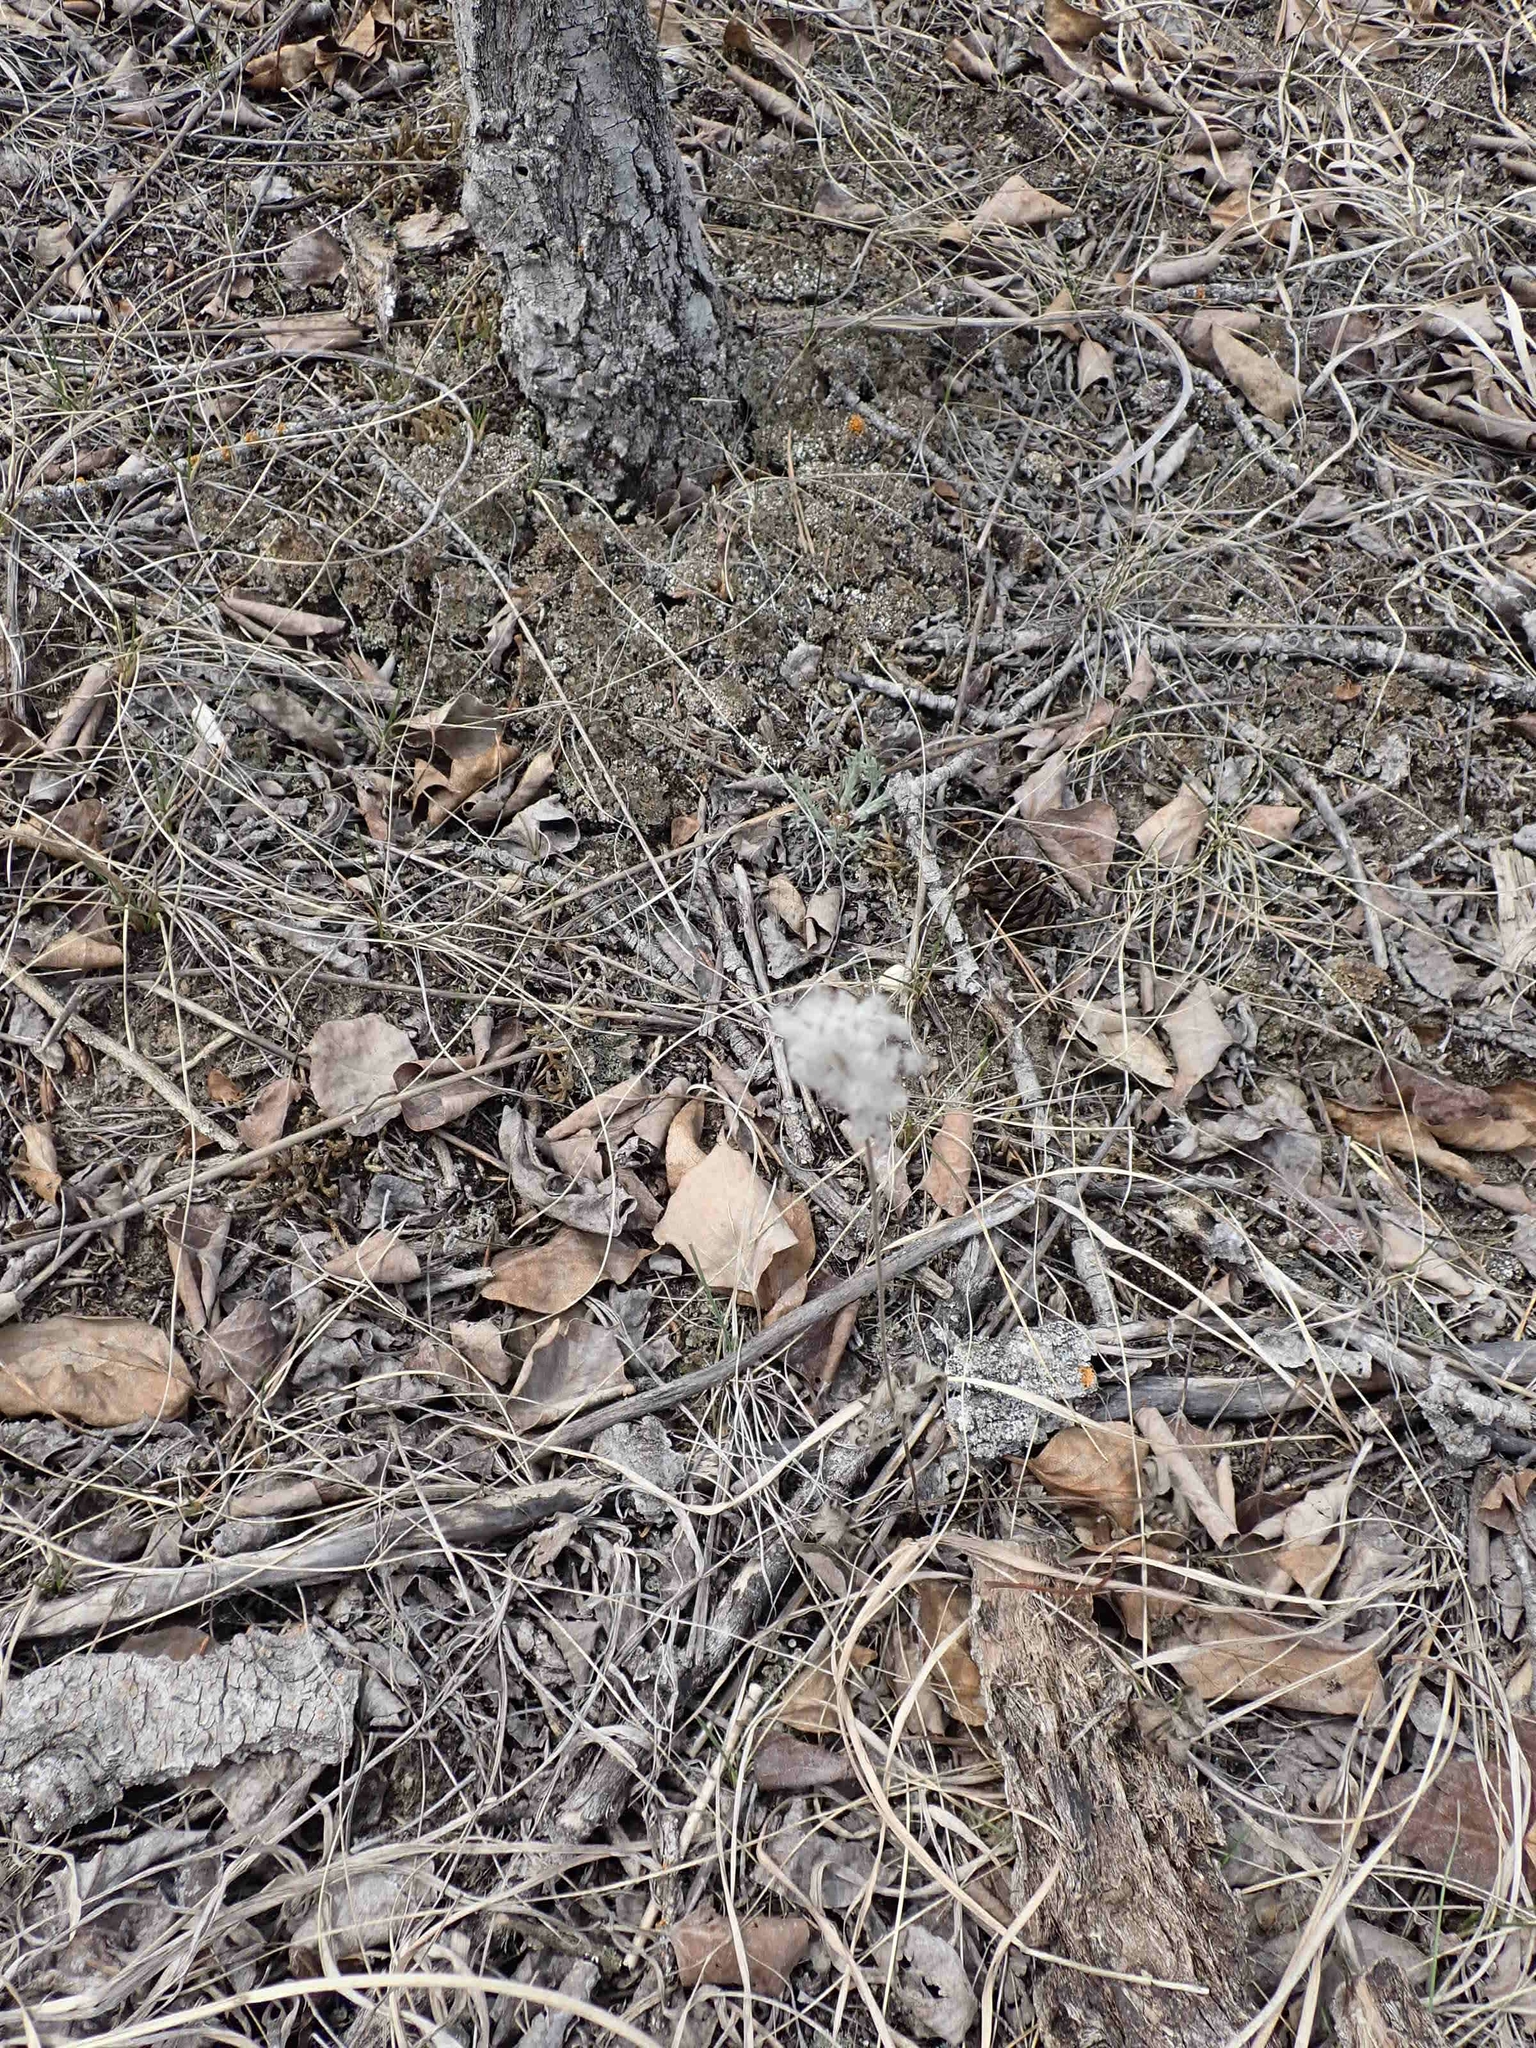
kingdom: Plantae
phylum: Tracheophyta
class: Magnoliopsida
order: Ranunculales
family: Ranunculaceae
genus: Anemone
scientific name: Anemone cylindrica
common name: Candle anemone
